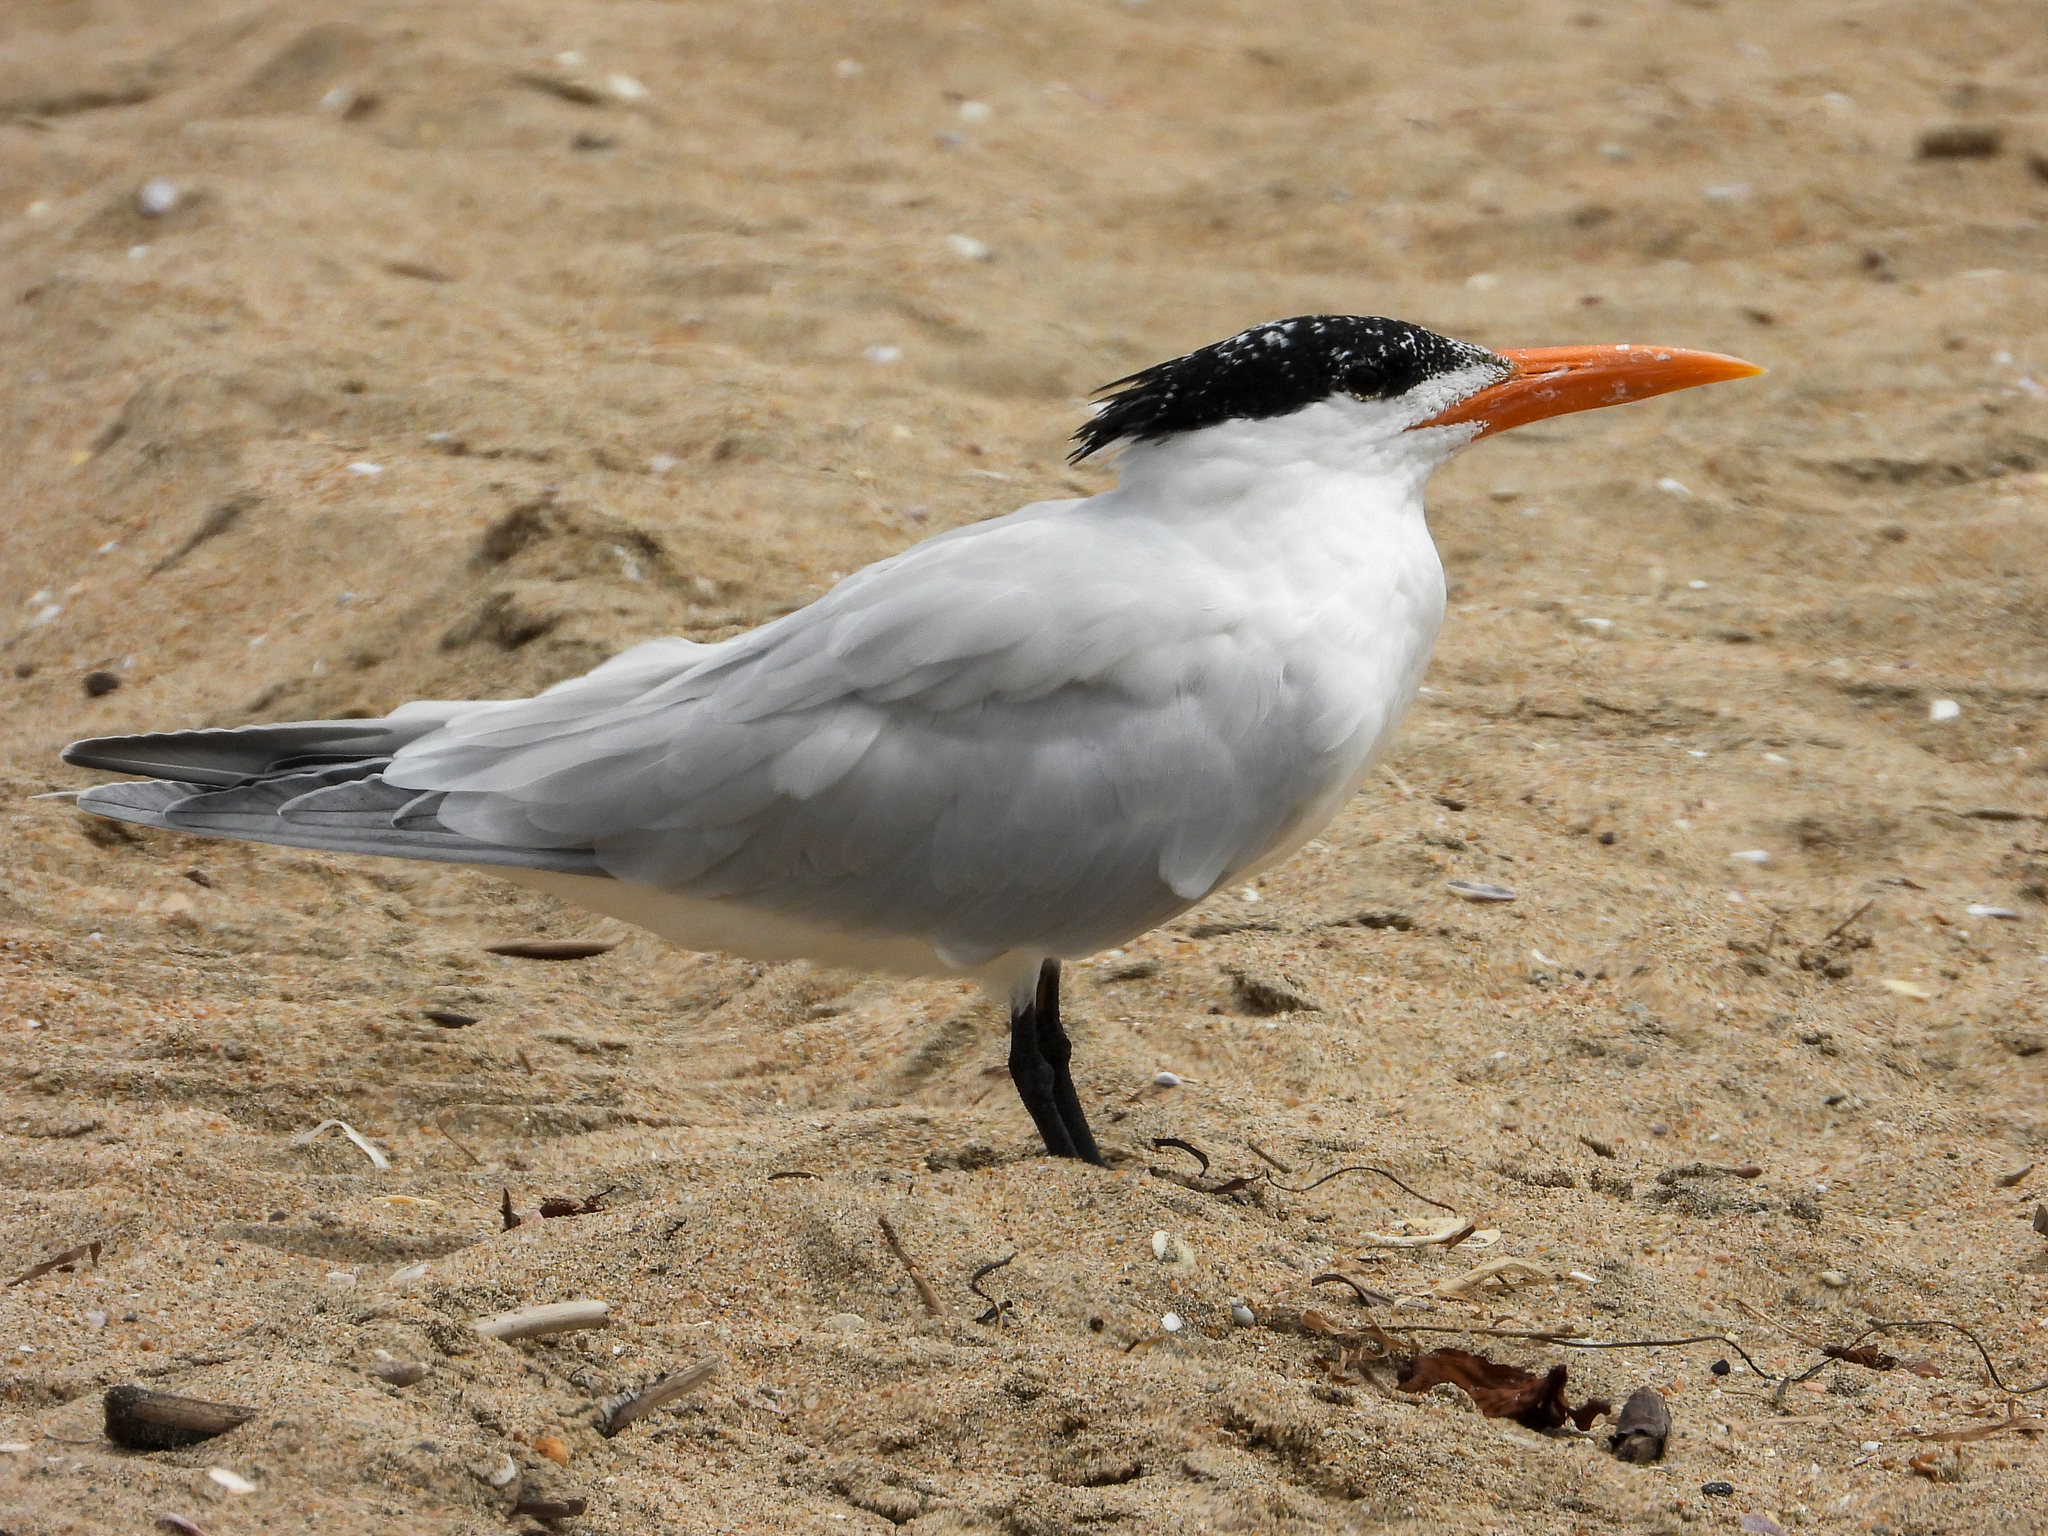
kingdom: Animalia
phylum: Chordata
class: Aves
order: Charadriiformes
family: Laridae
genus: Thalasseus
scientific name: Thalasseus maximus
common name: Royal tern
